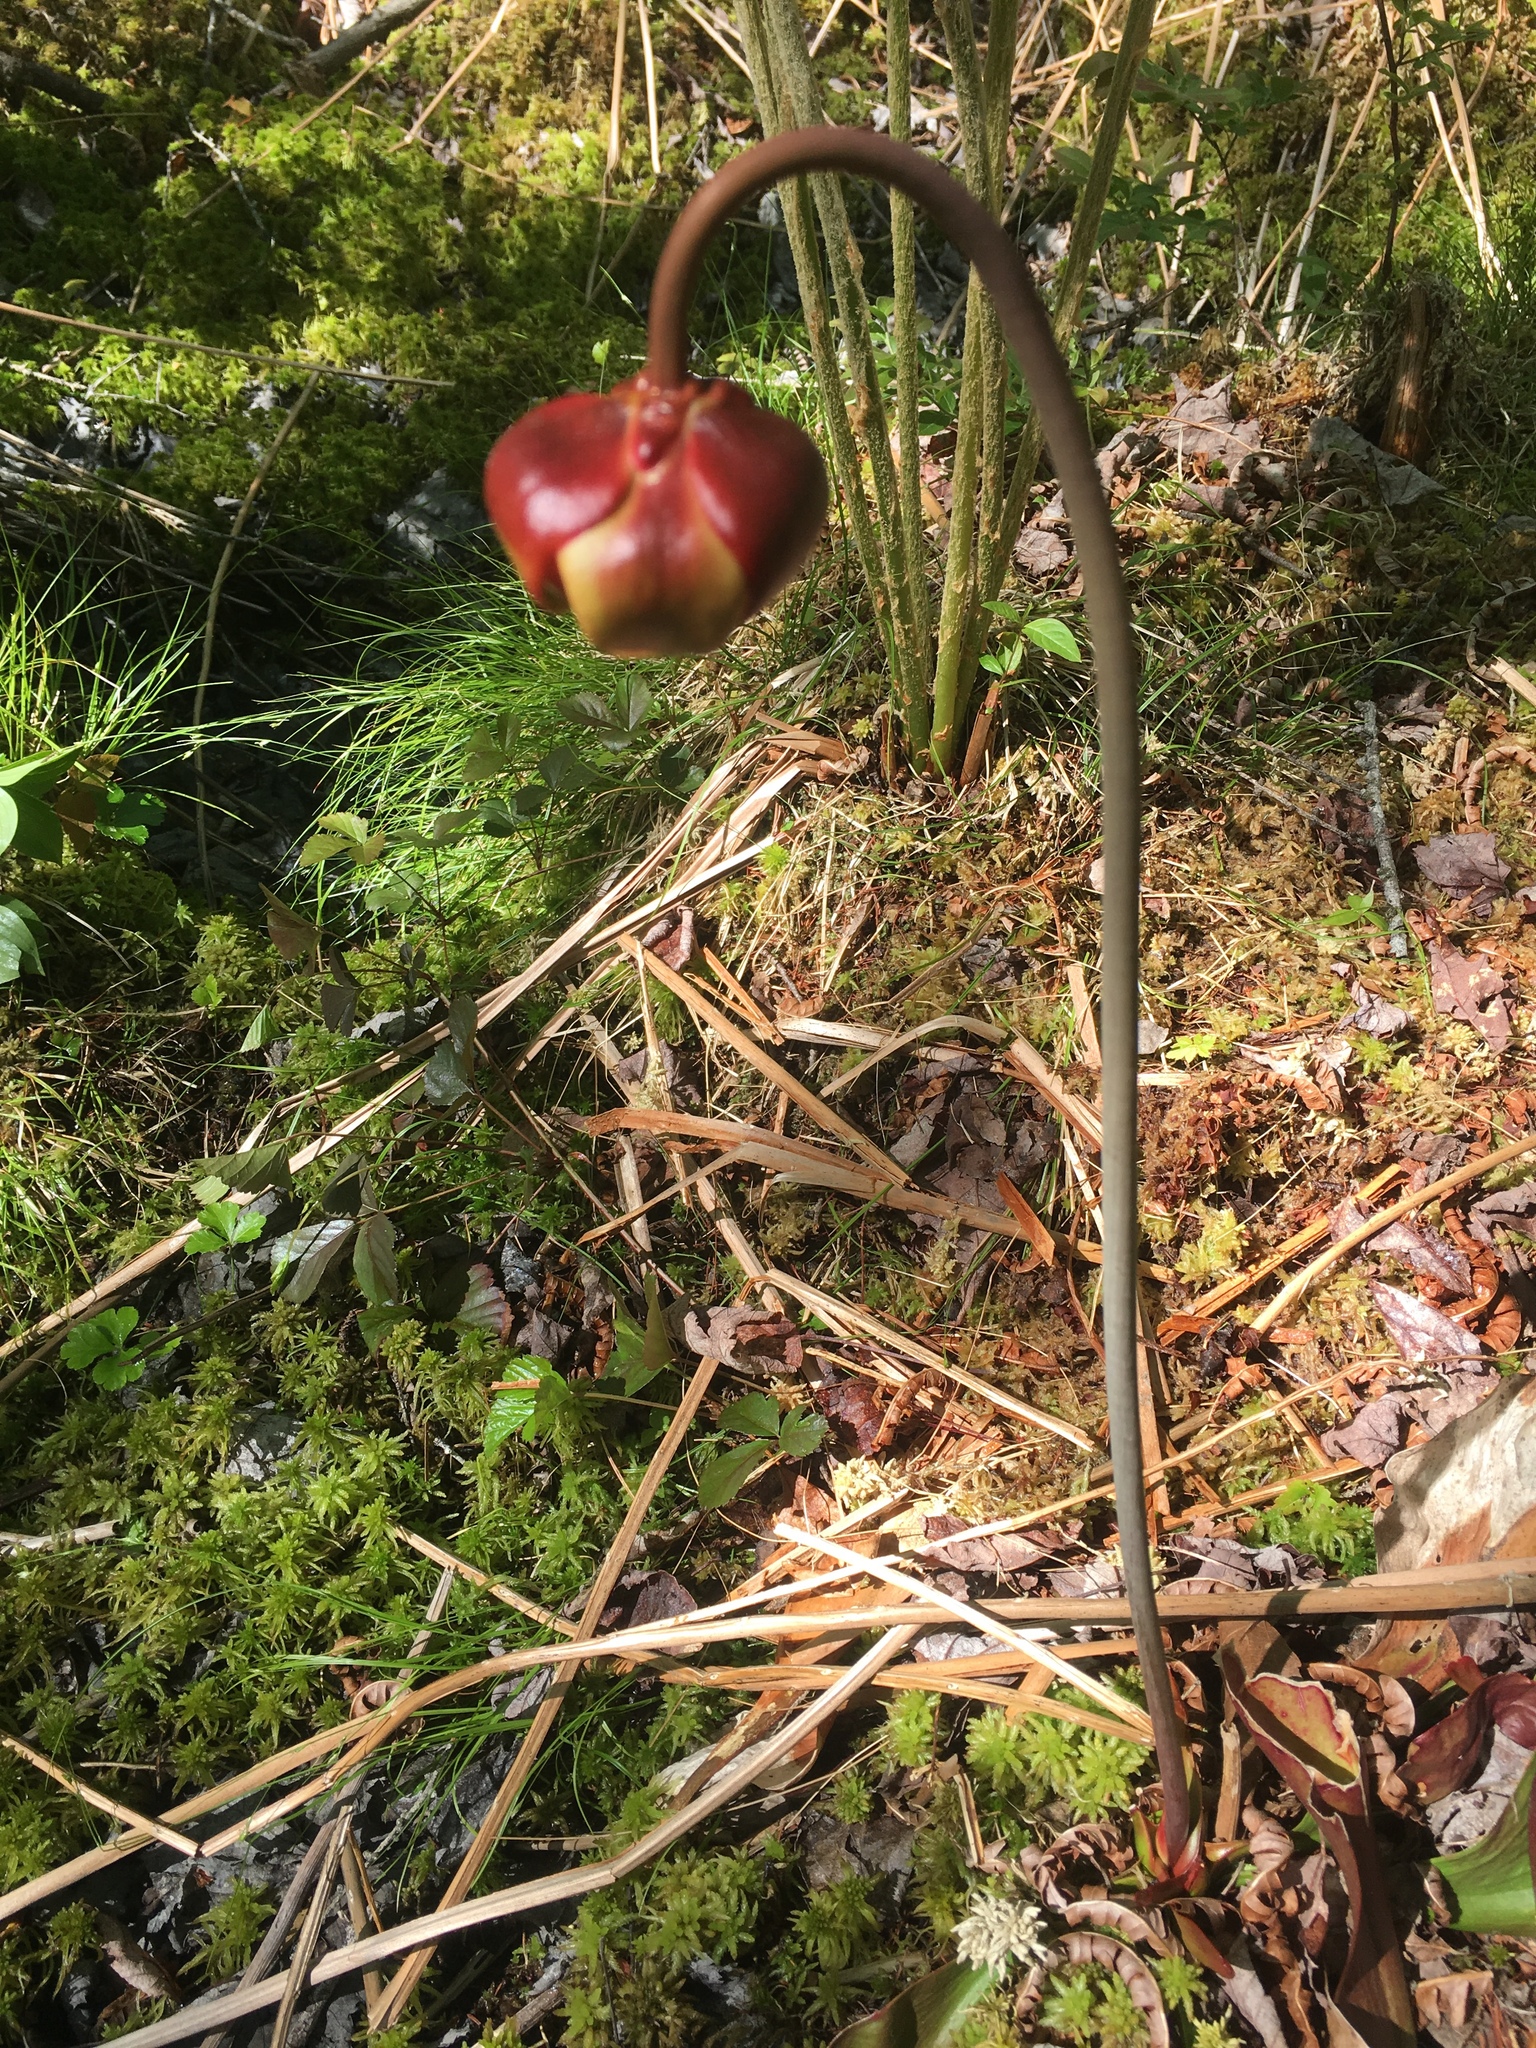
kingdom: Plantae
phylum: Tracheophyta
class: Magnoliopsida
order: Ericales
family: Sarraceniaceae
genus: Sarracenia
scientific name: Sarracenia purpurea
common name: Pitcherplant
